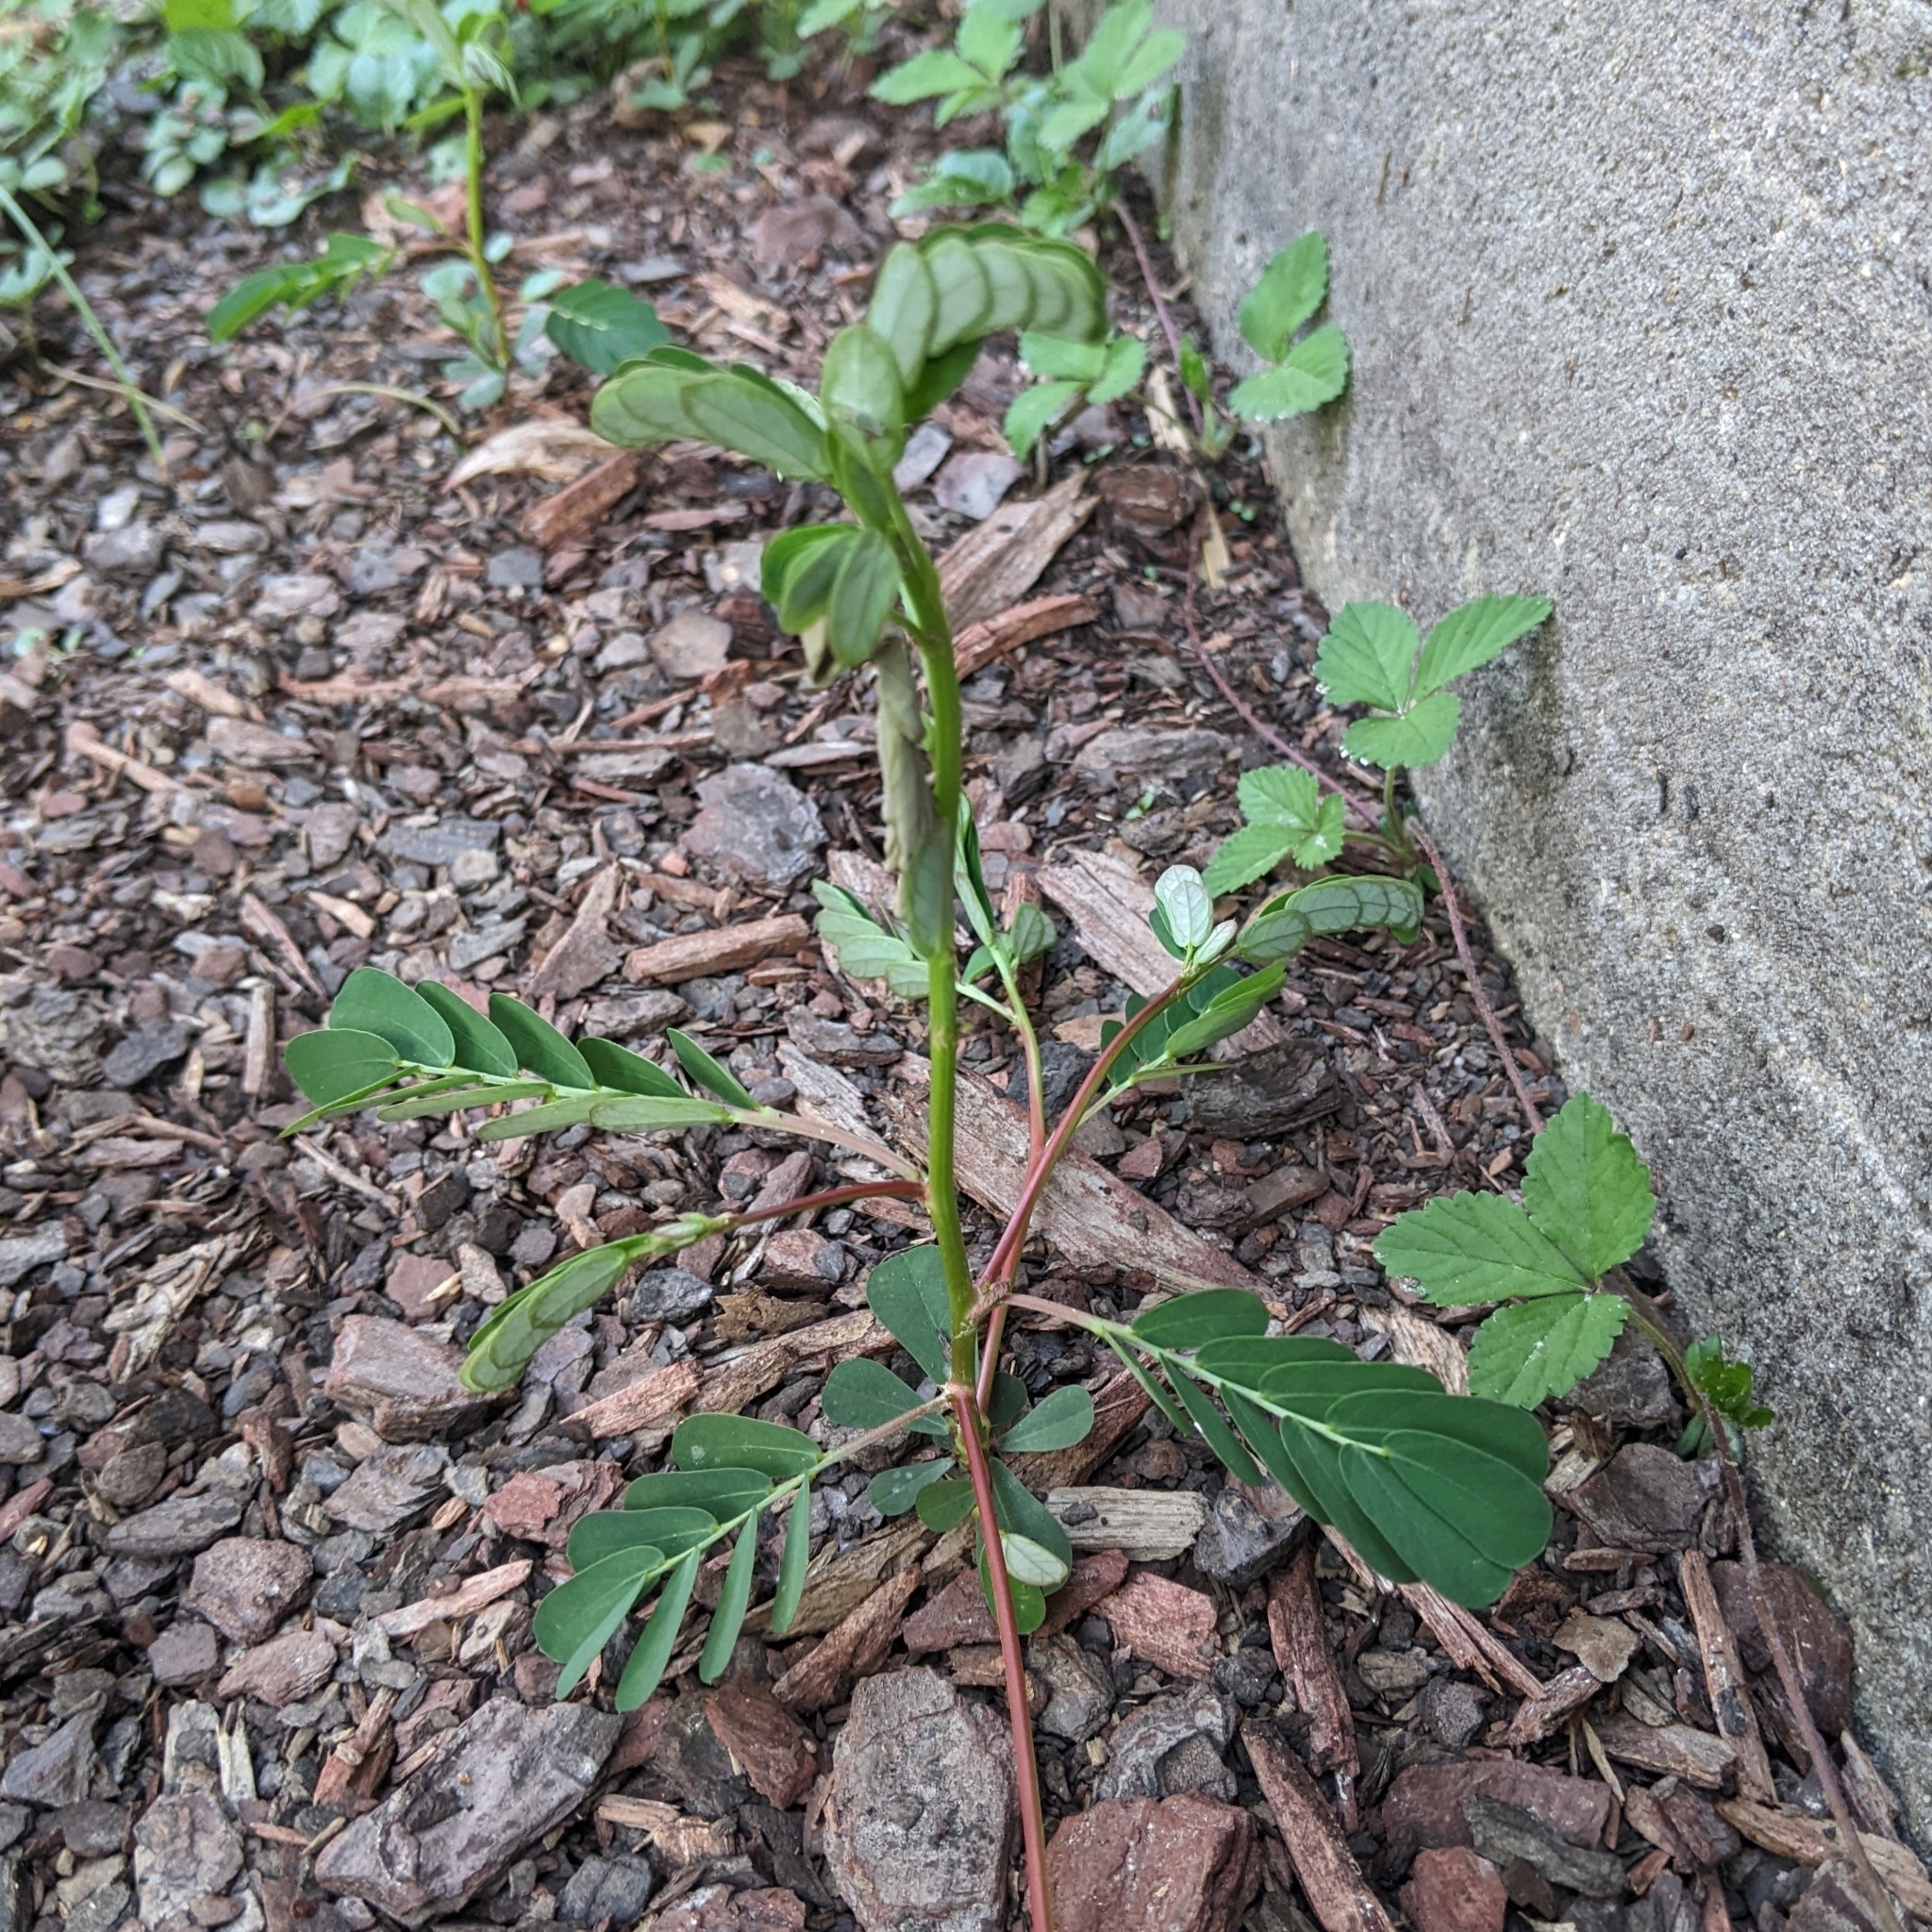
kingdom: Plantae
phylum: Tracheophyta
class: Magnoliopsida
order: Malpighiales
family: Phyllanthaceae
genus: Phyllanthus
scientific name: Phyllanthus urinaria
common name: Chamber bitter
